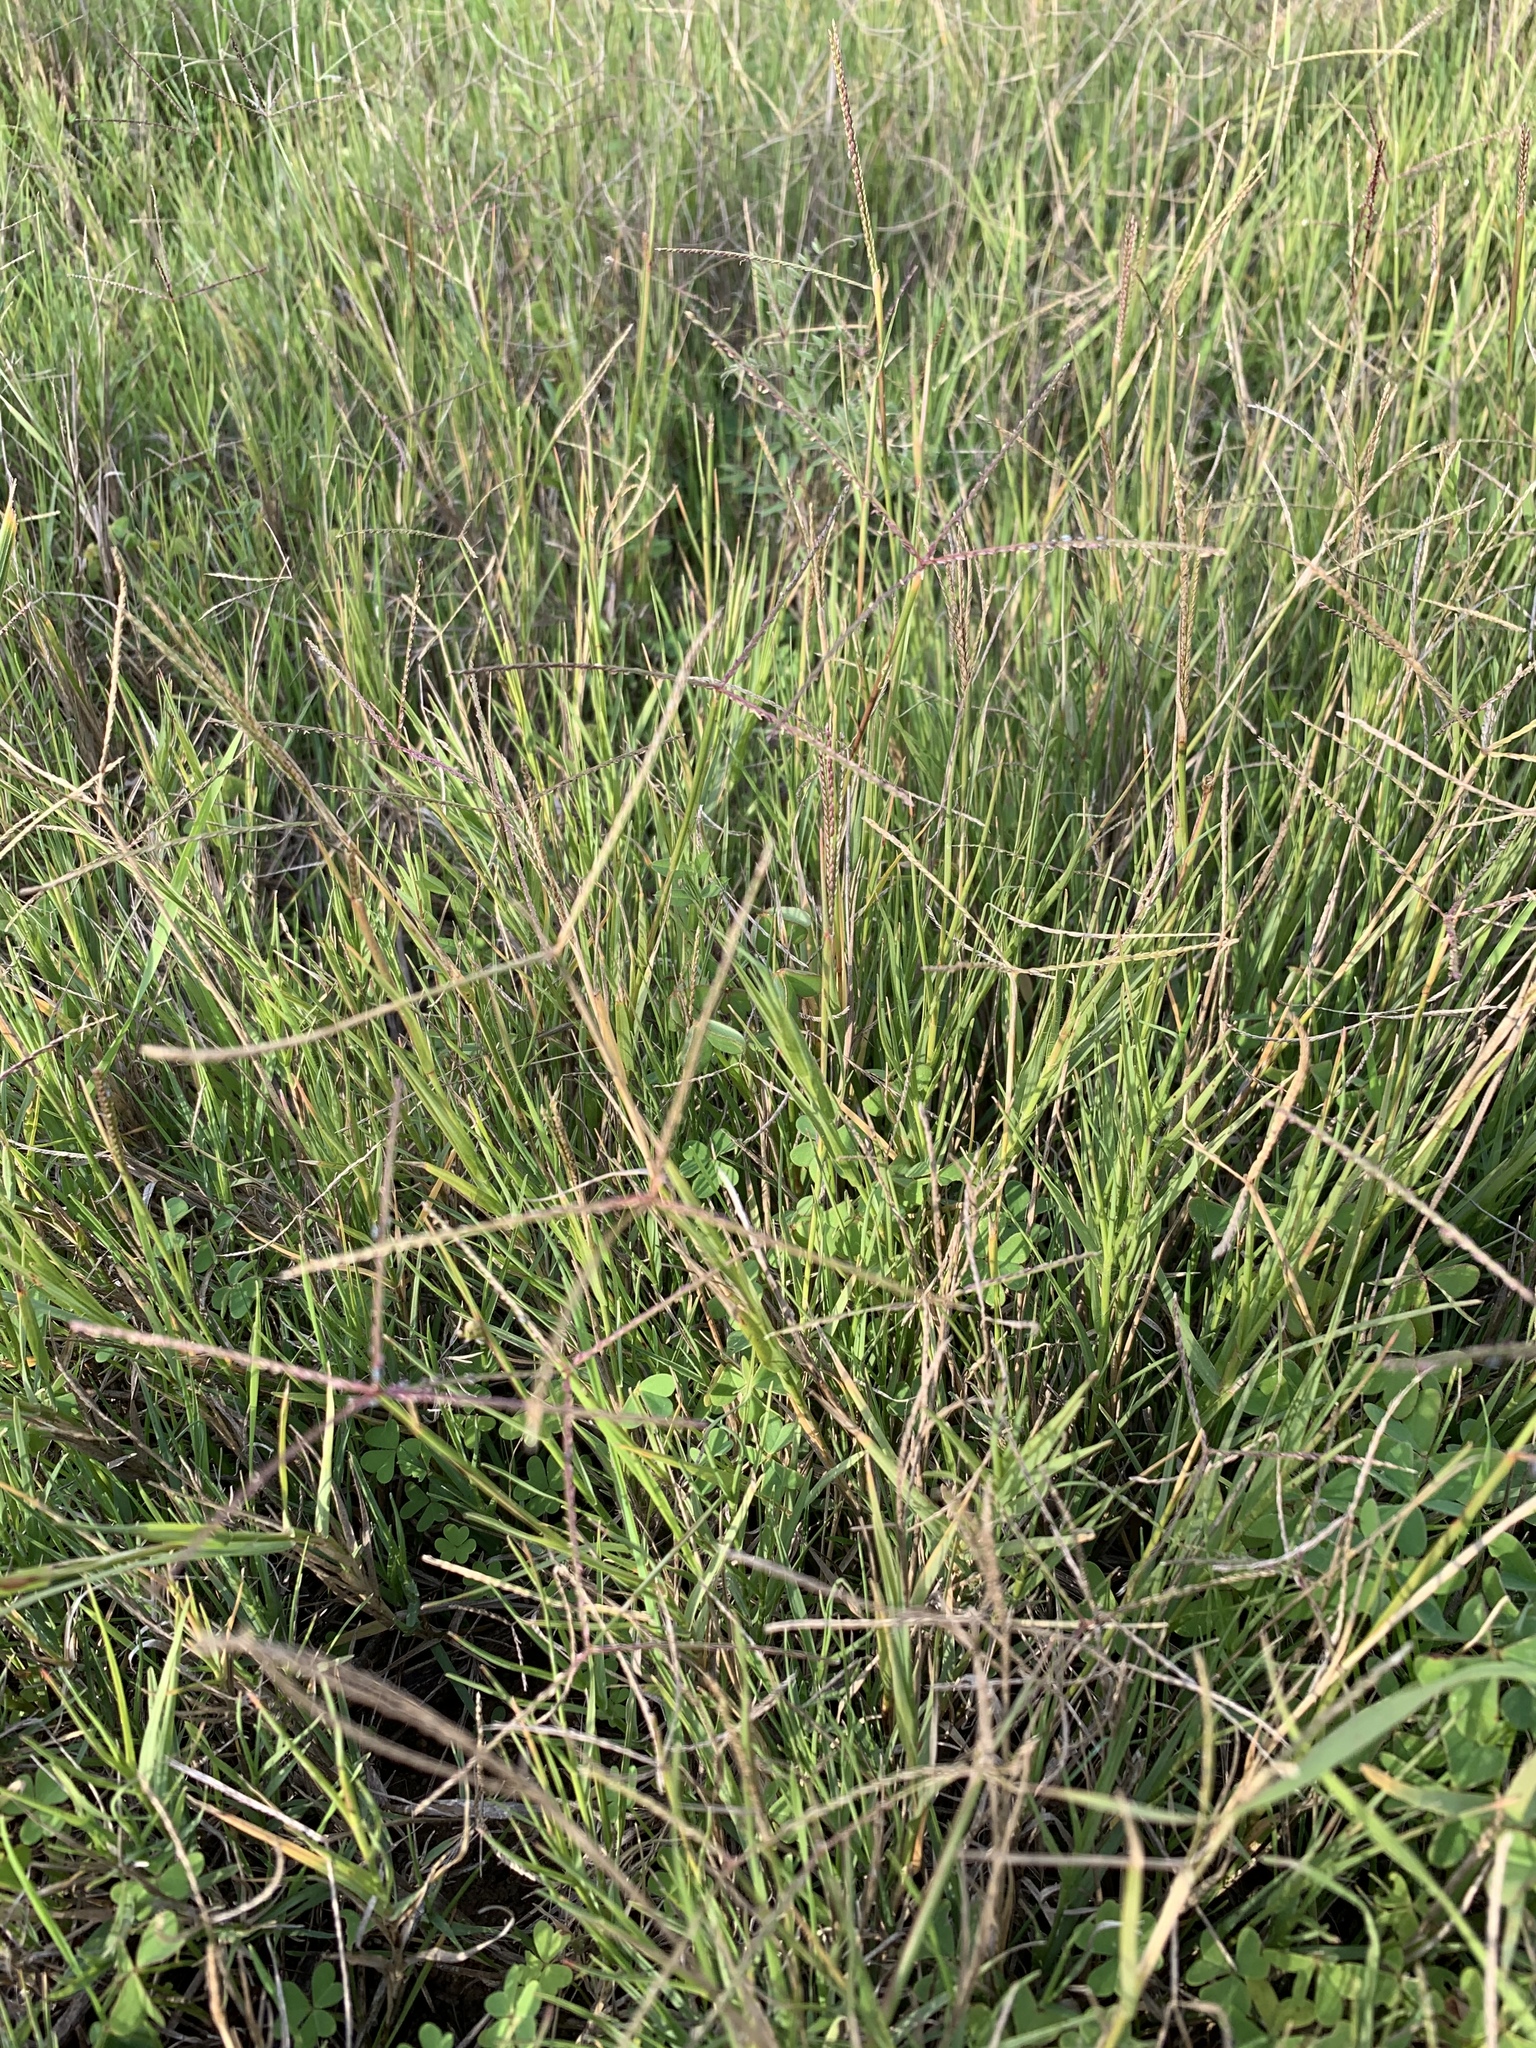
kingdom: Plantae
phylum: Tracheophyta
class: Liliopsida
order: Poales
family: Poaceae
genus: Cynodon
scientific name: Cynodon dactylon
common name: Bermuda grass
